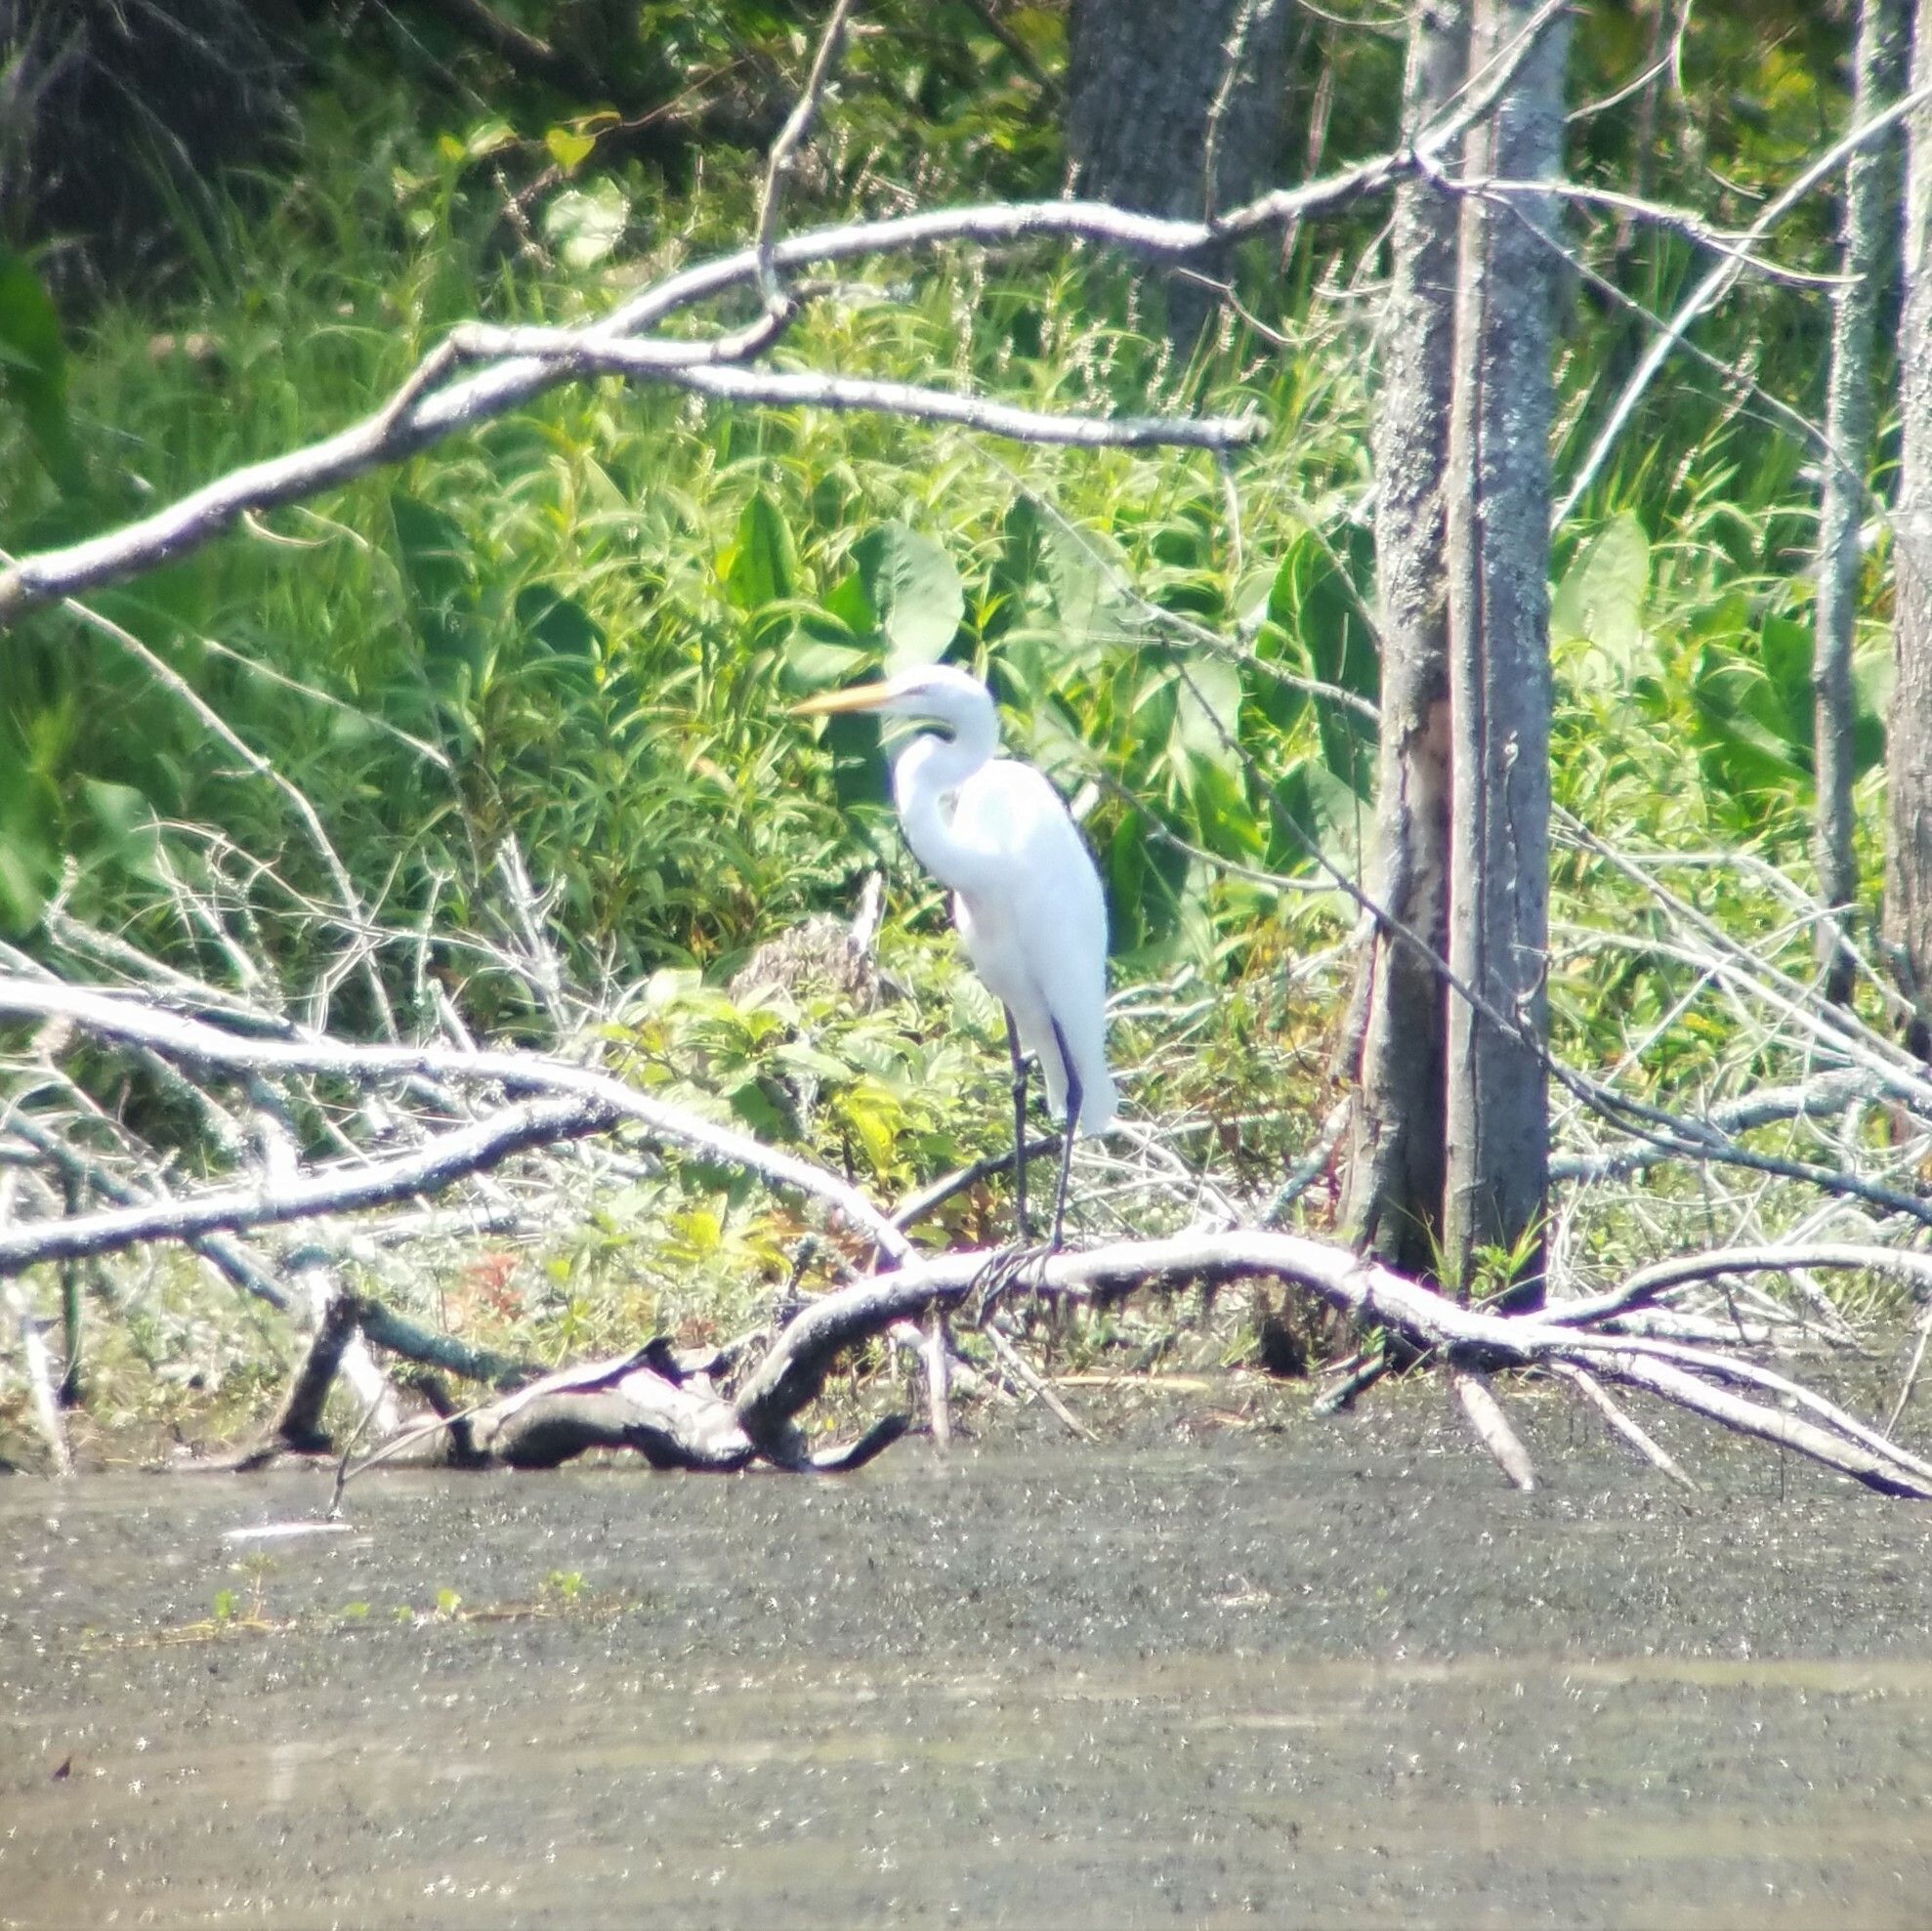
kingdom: Animalia
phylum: Chordata
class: Aves
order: Pelecaniformes
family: Ardeidae
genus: Ardea
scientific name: Ardea alba
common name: Great egret
